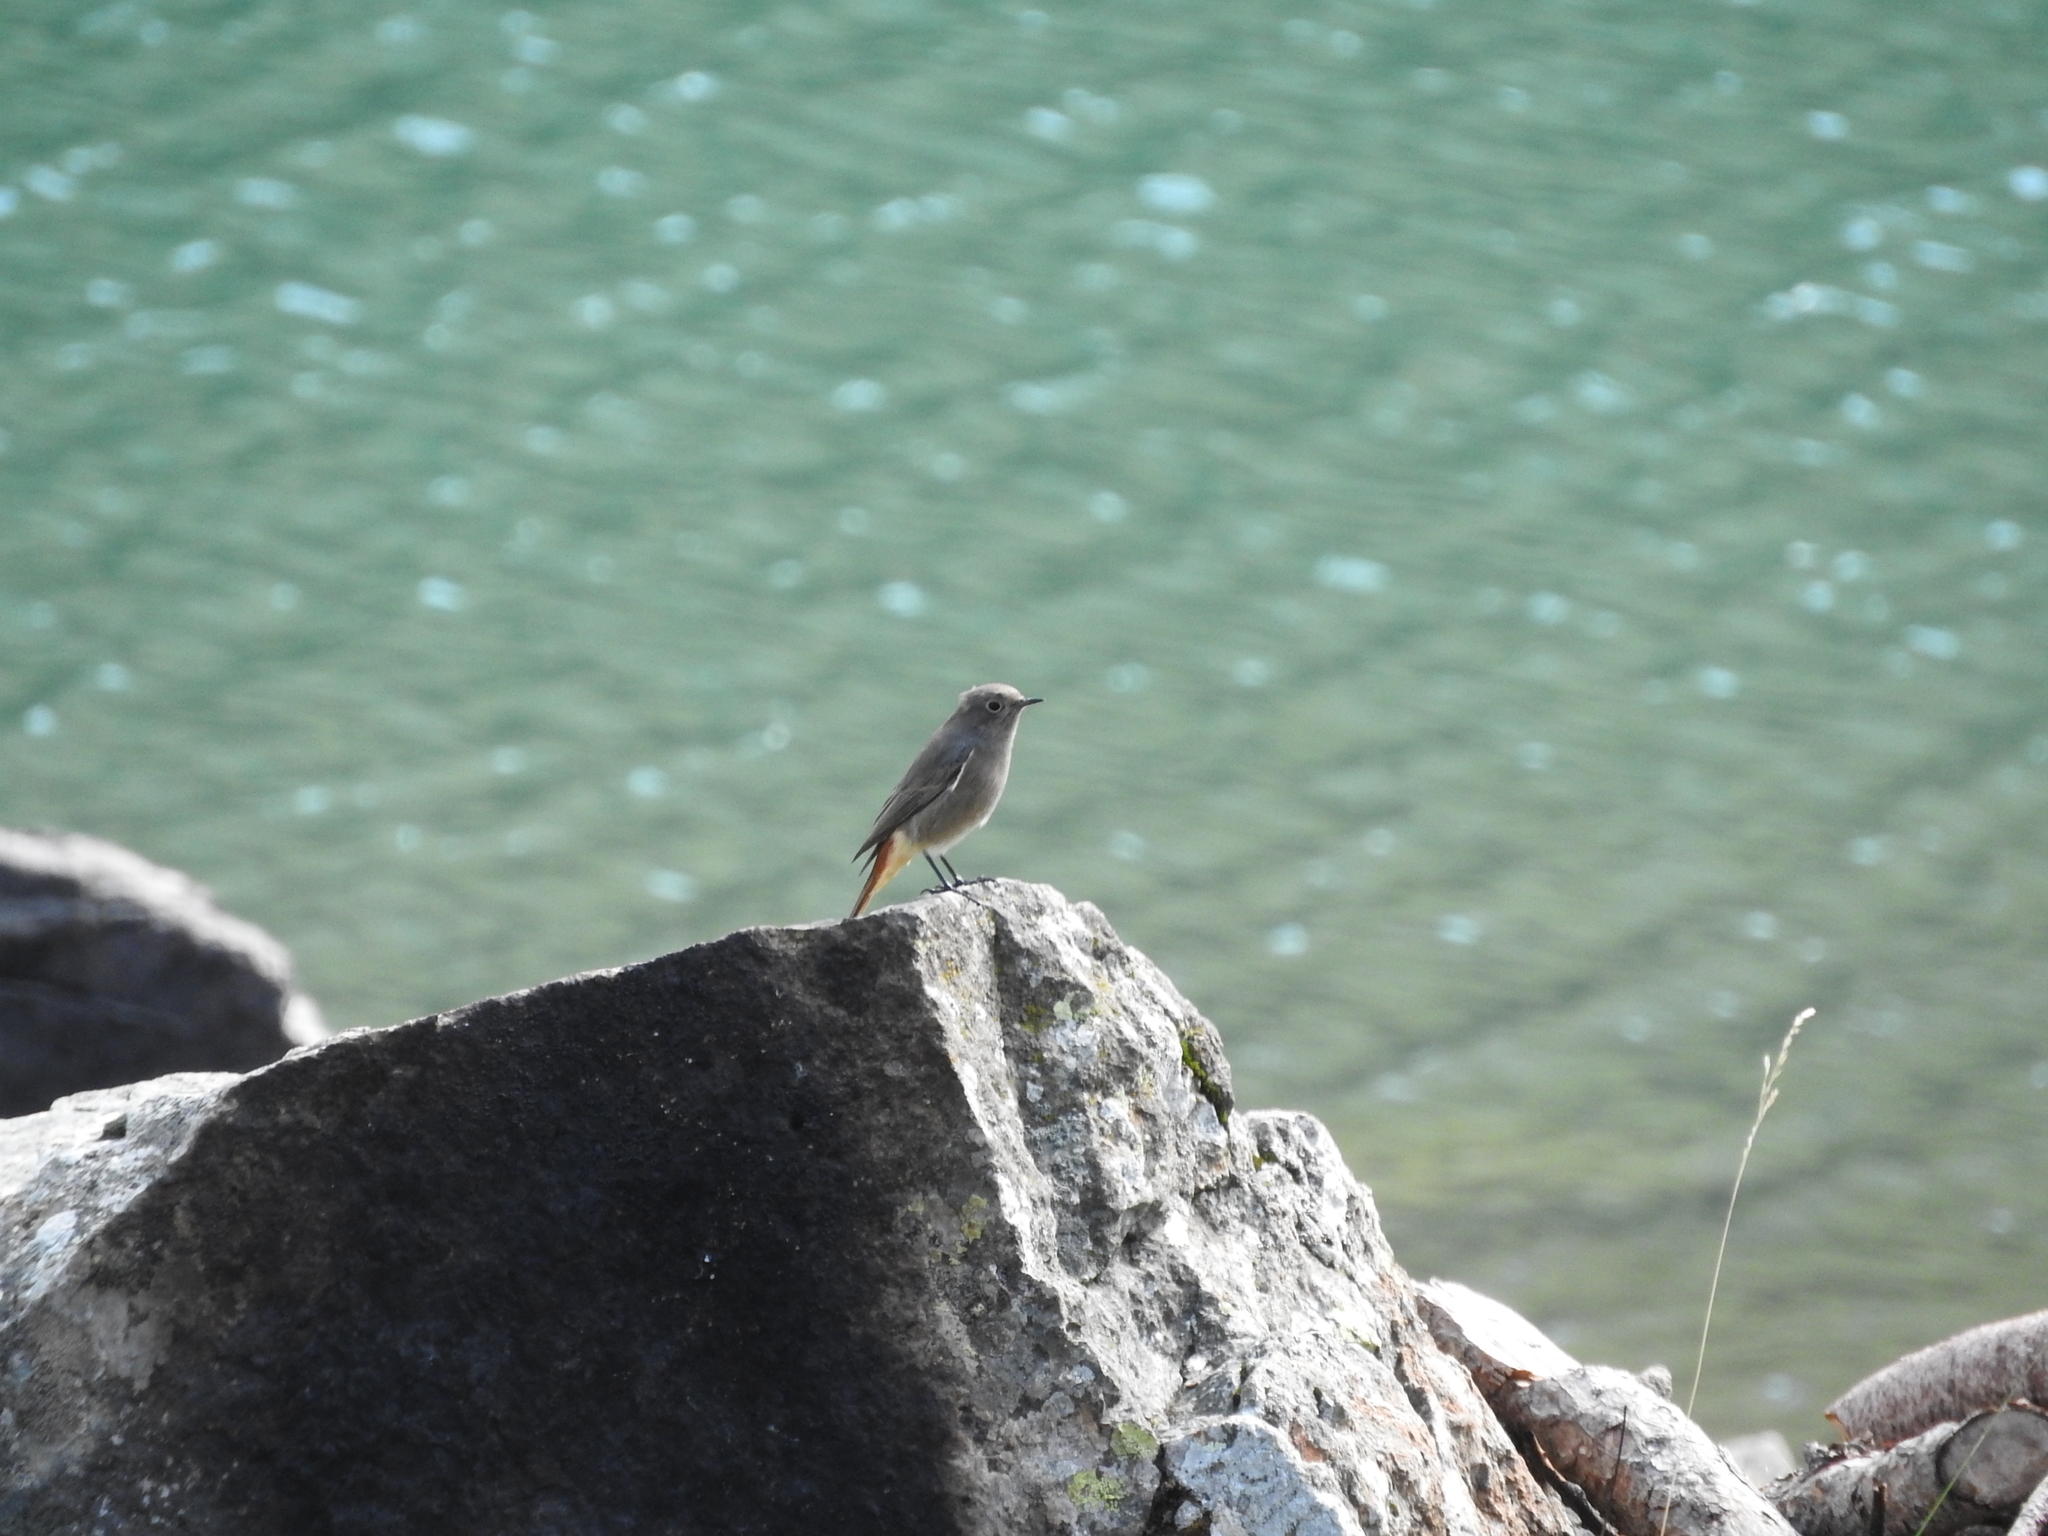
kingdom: Animalia
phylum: Chordata
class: Aves
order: Passeriformes
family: Muscicapidae
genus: Phoenicurus
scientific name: Phoenicurus ochruros
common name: Black redstart
